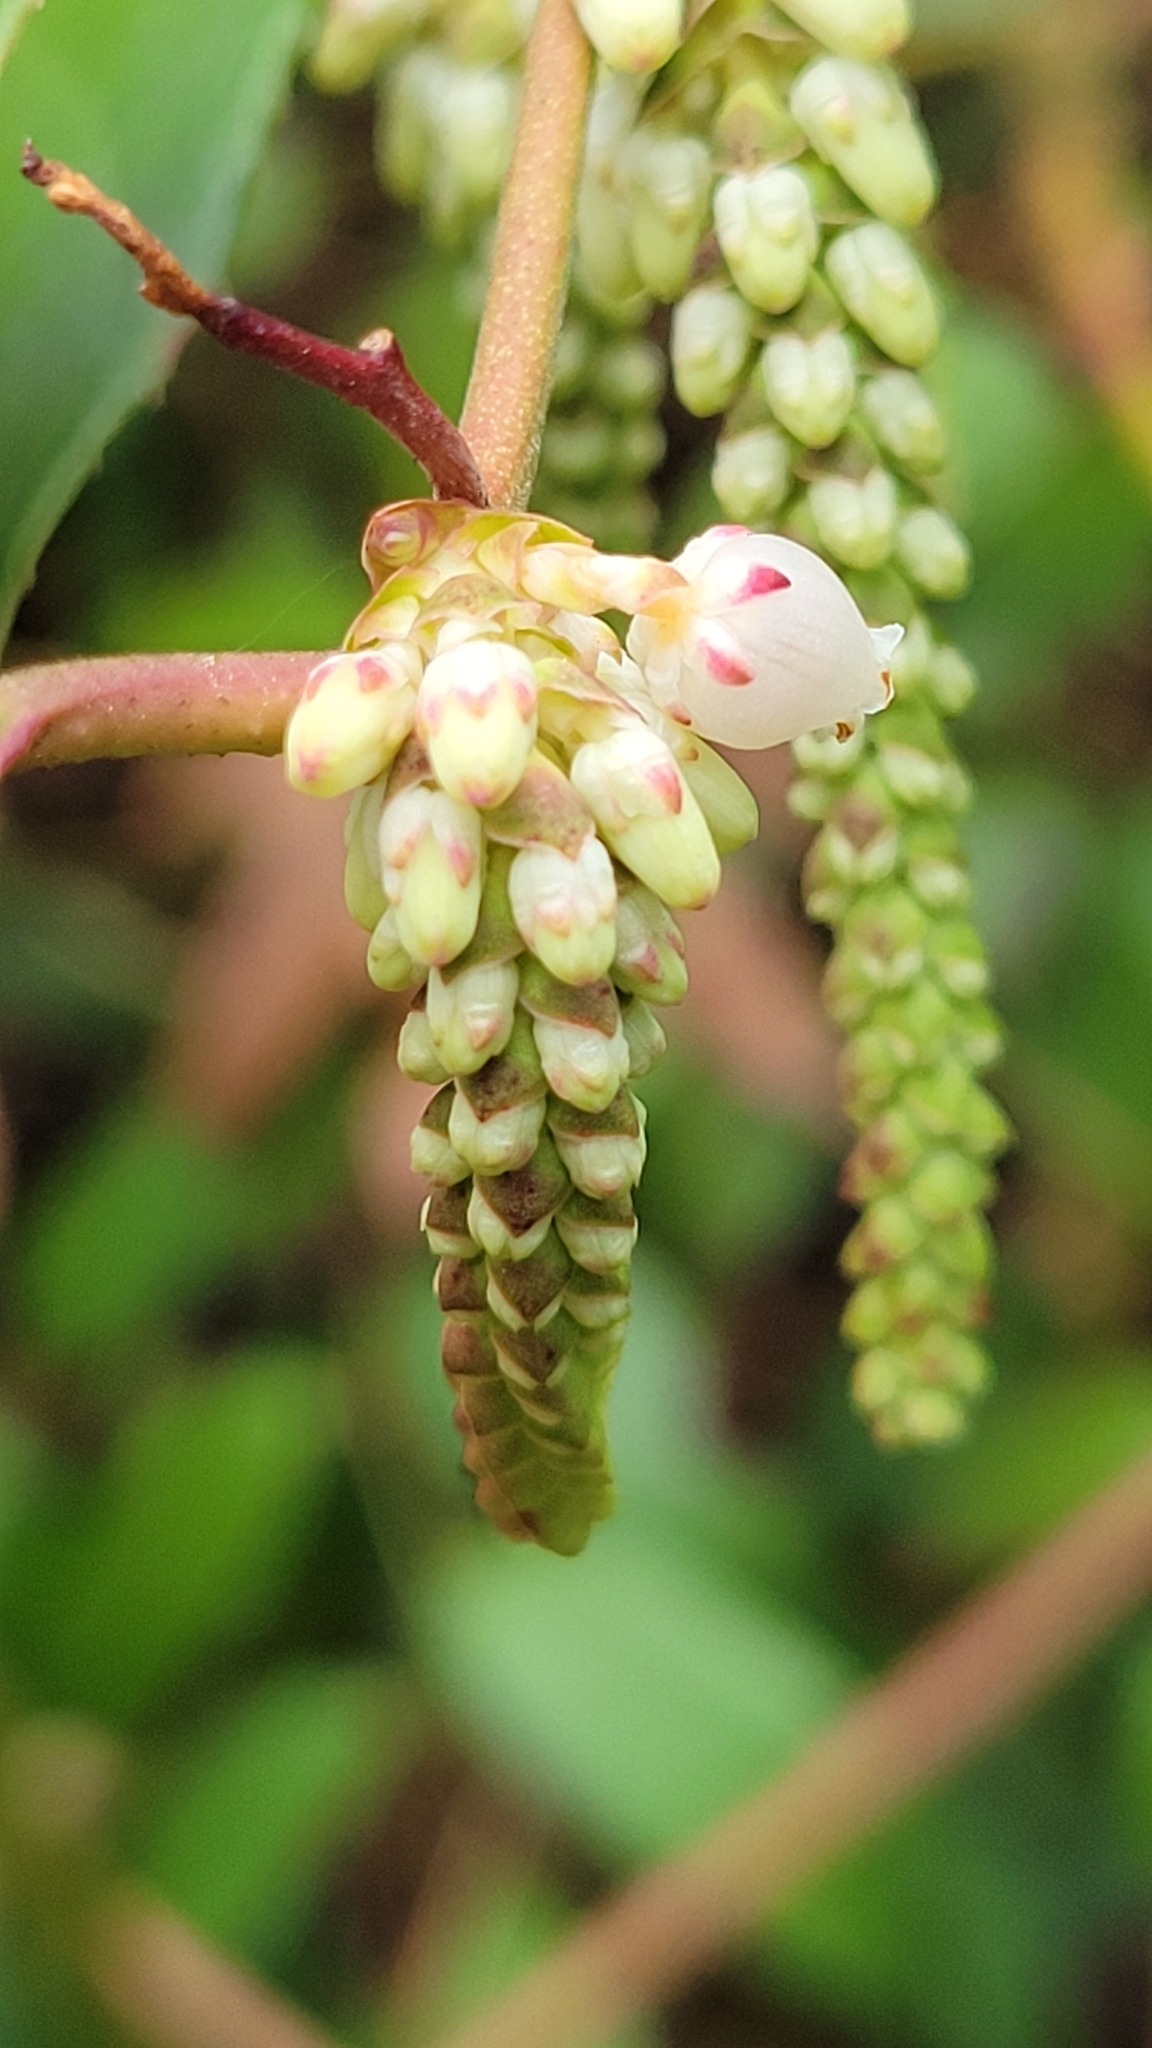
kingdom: Plantae
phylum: Tracheophyta
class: Magnoliopsida
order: Ericales
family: Ericaceae
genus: Leucothoe
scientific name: Leucothoe fontanesiana
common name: Fetterbush
